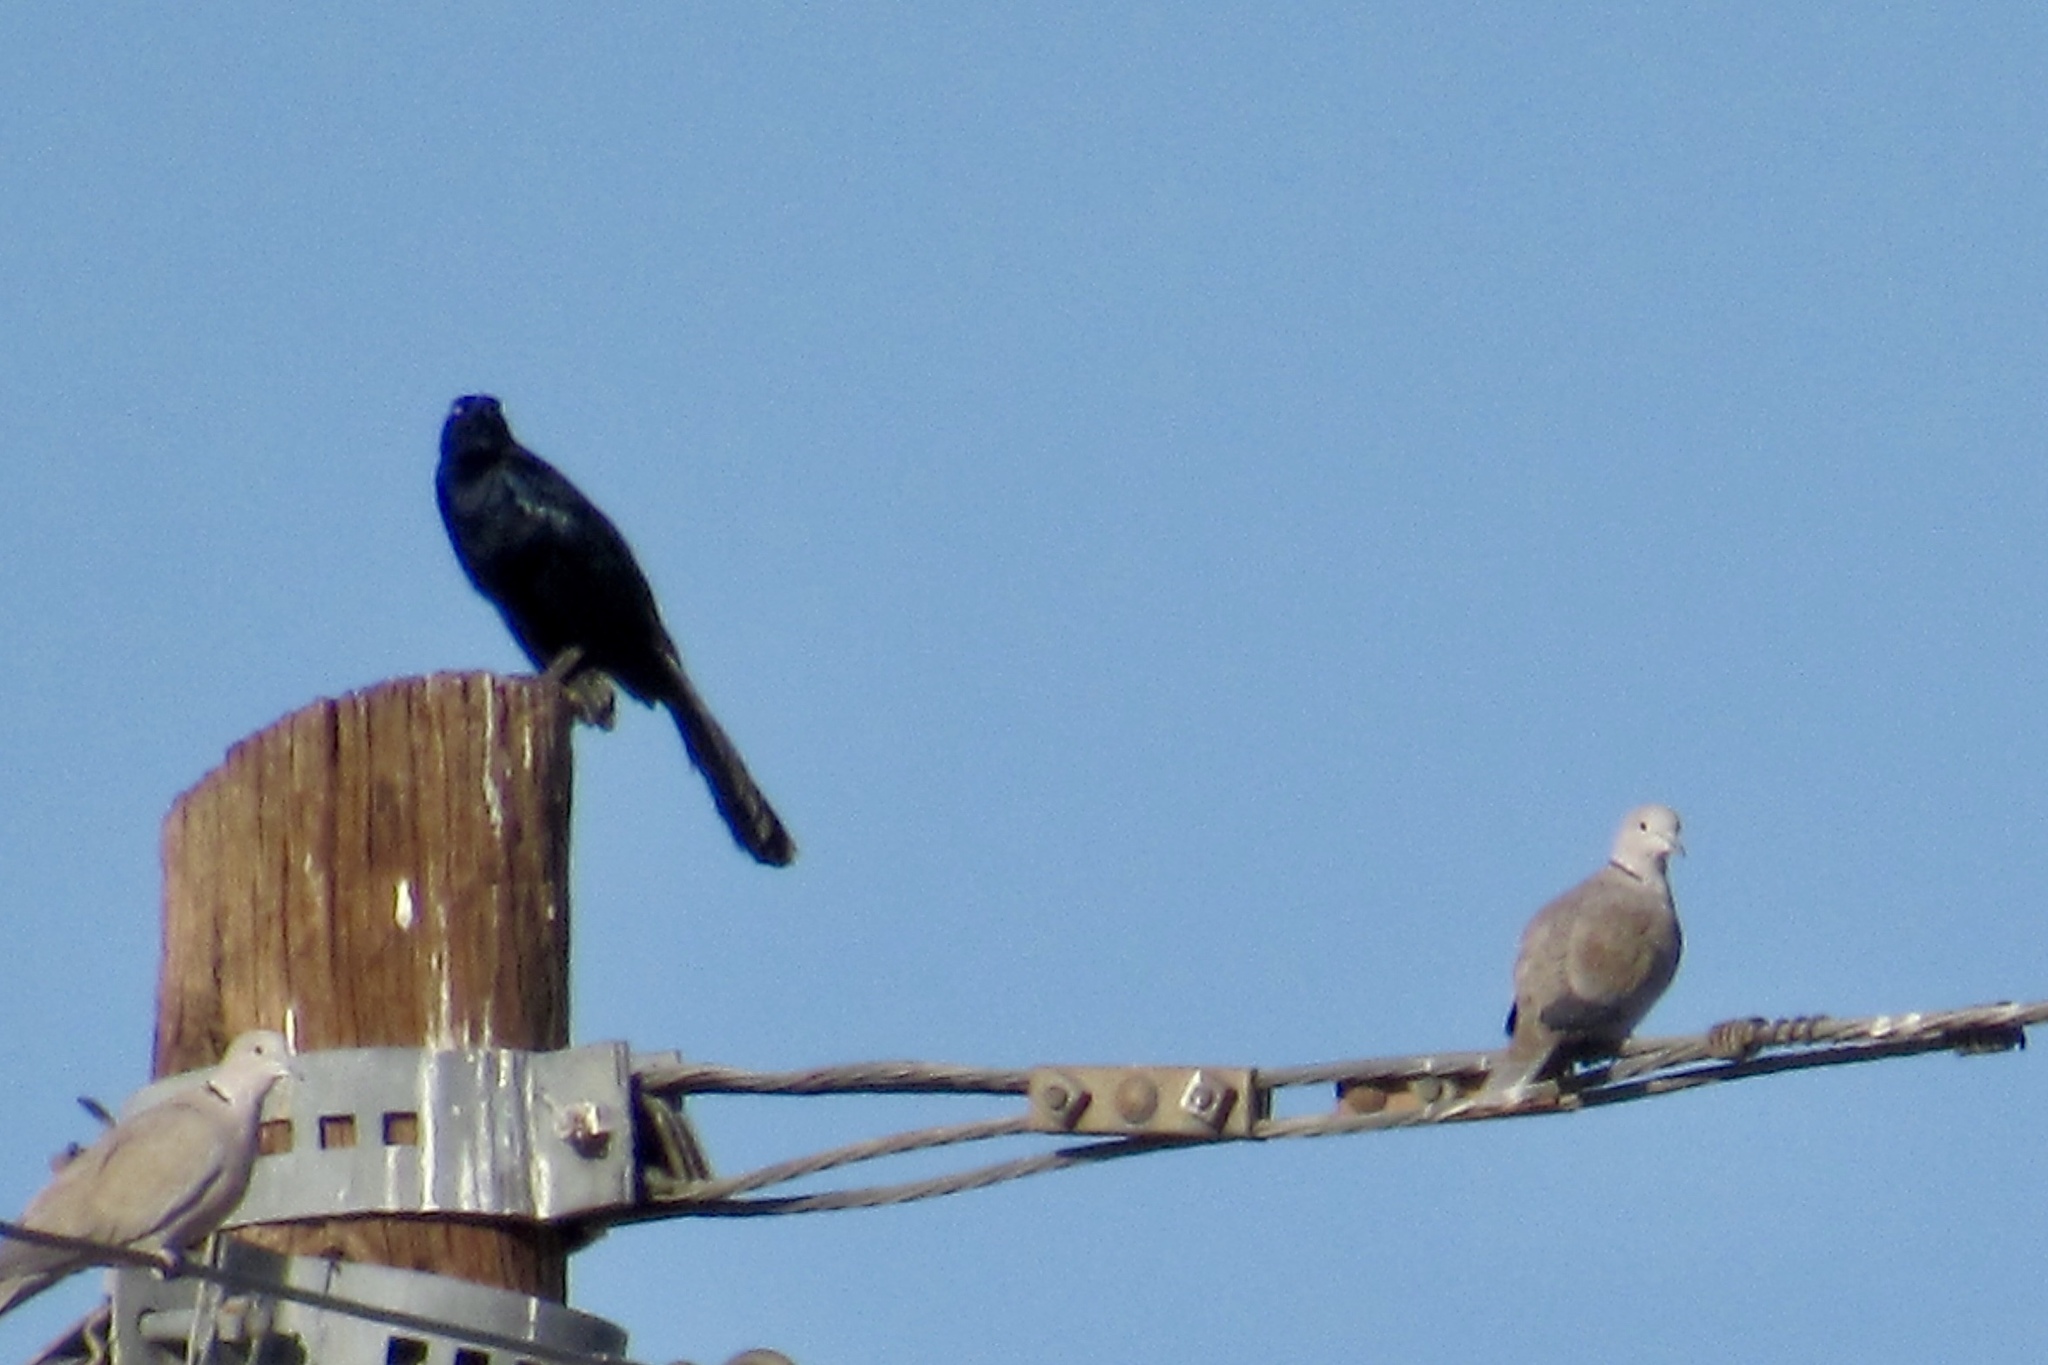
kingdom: Animalia
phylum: Chordata
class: Aves
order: Passeriformes
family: Icteridae
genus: Quiscalus
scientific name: Quiscalus mexicanus
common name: Great-tailed grackle
